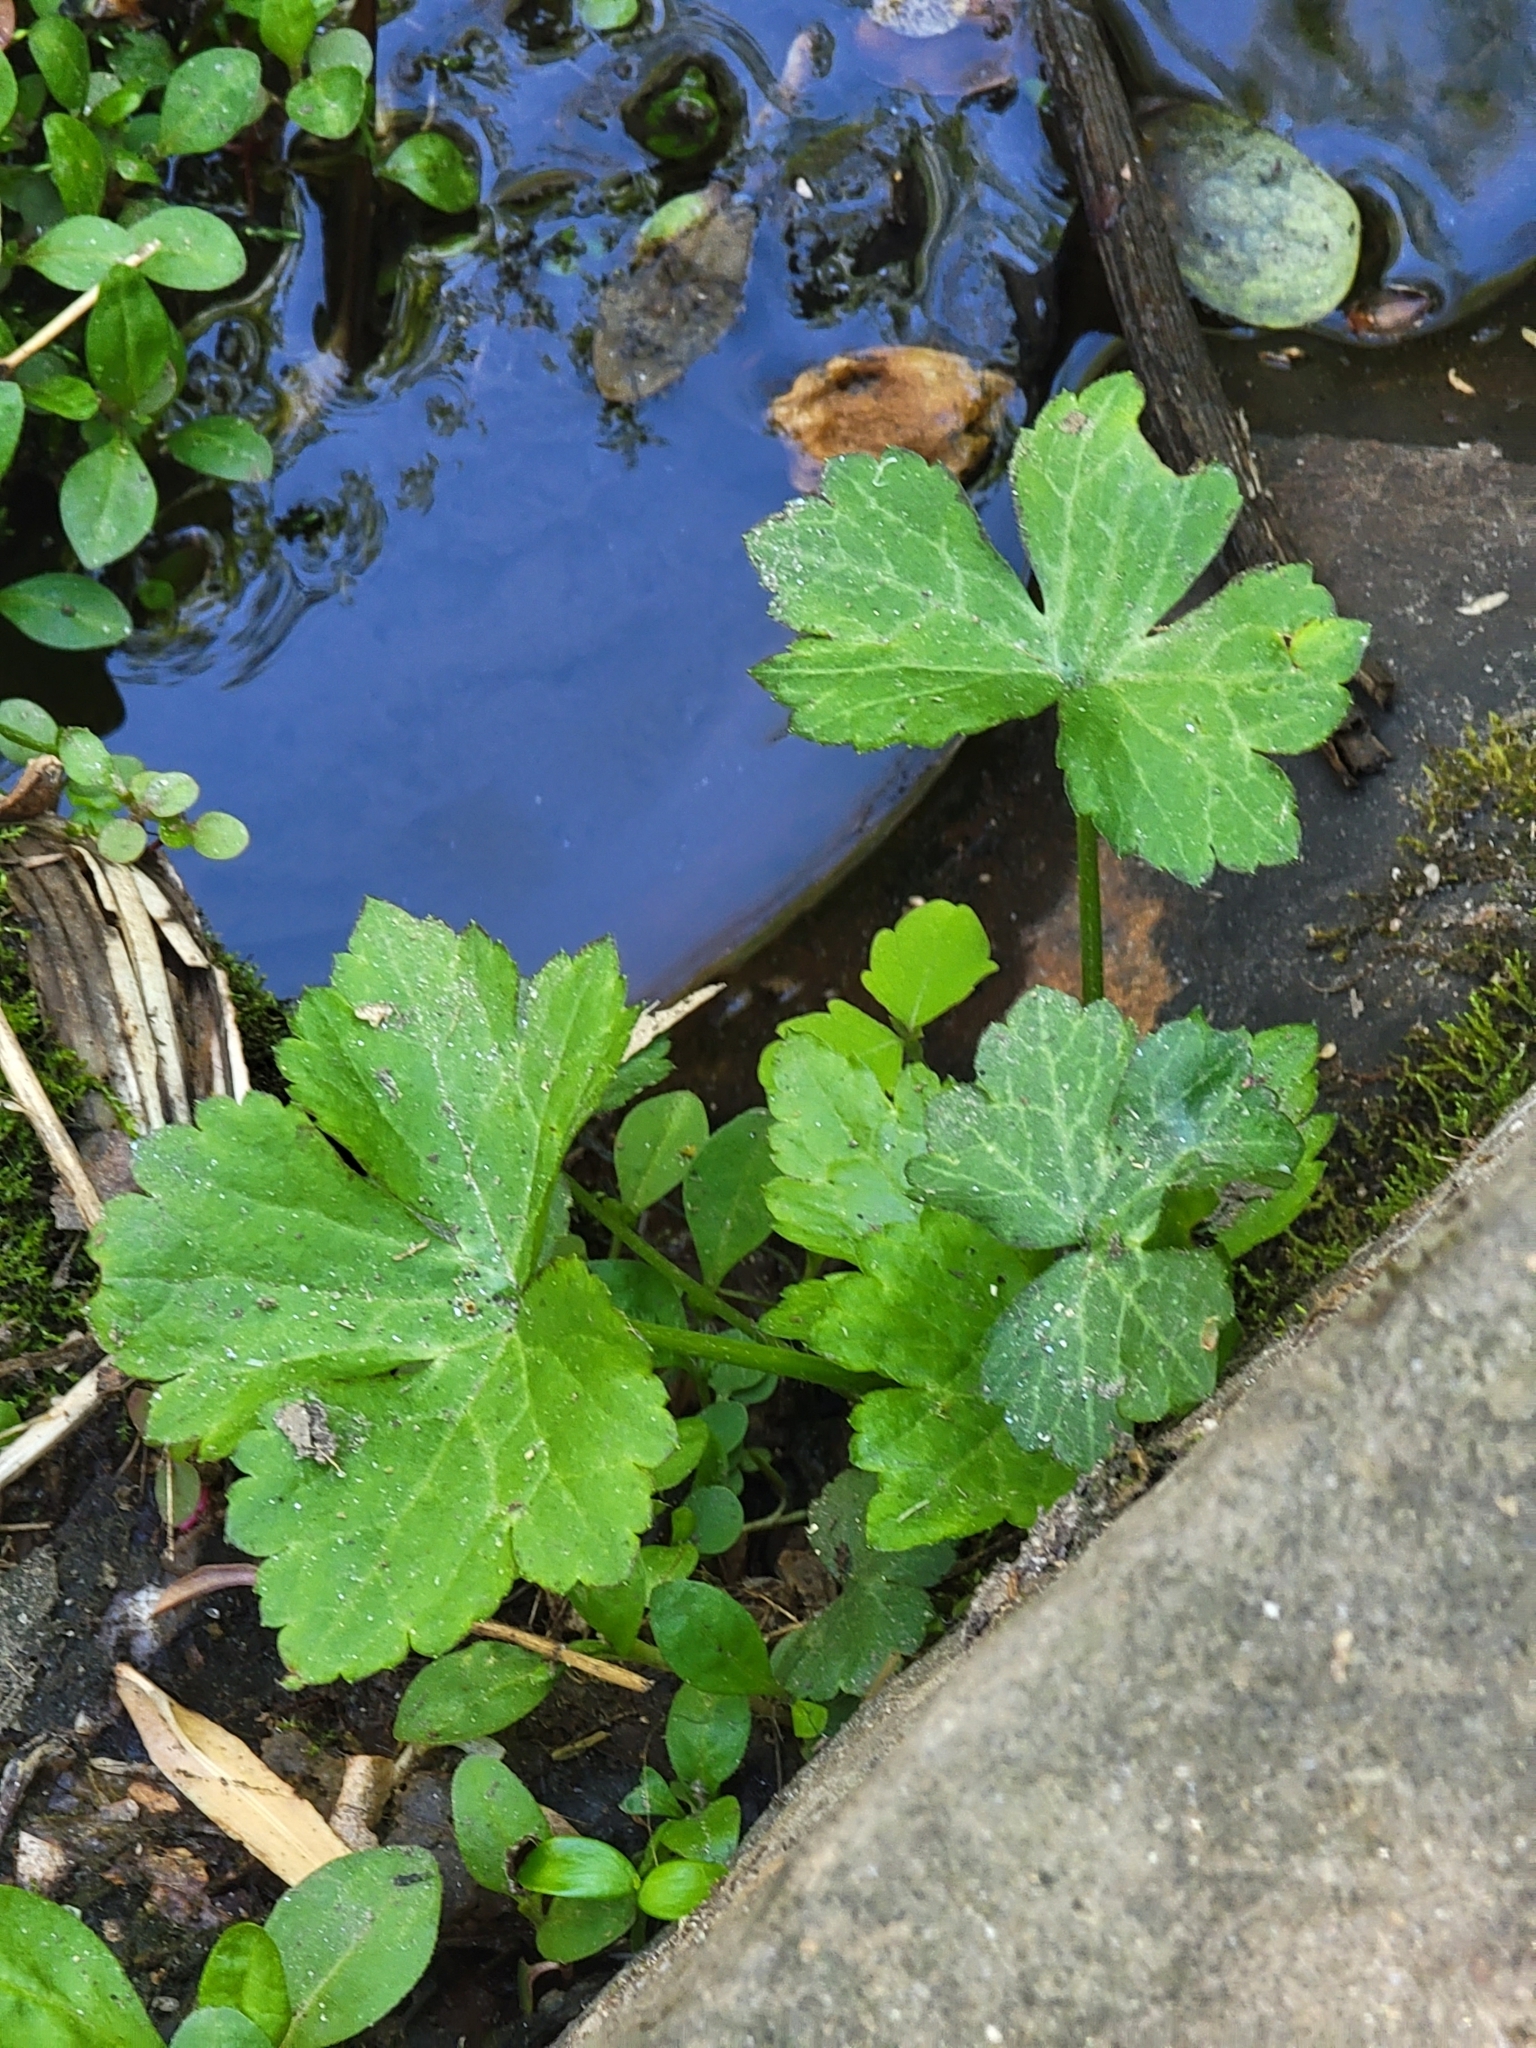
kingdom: Plantae
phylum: Tracheophyta
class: Magnoliopsida
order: Ranunculales
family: Ranunculaceae
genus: Ranunculus
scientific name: Ranunculus recurvatus
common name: Blisterwort
